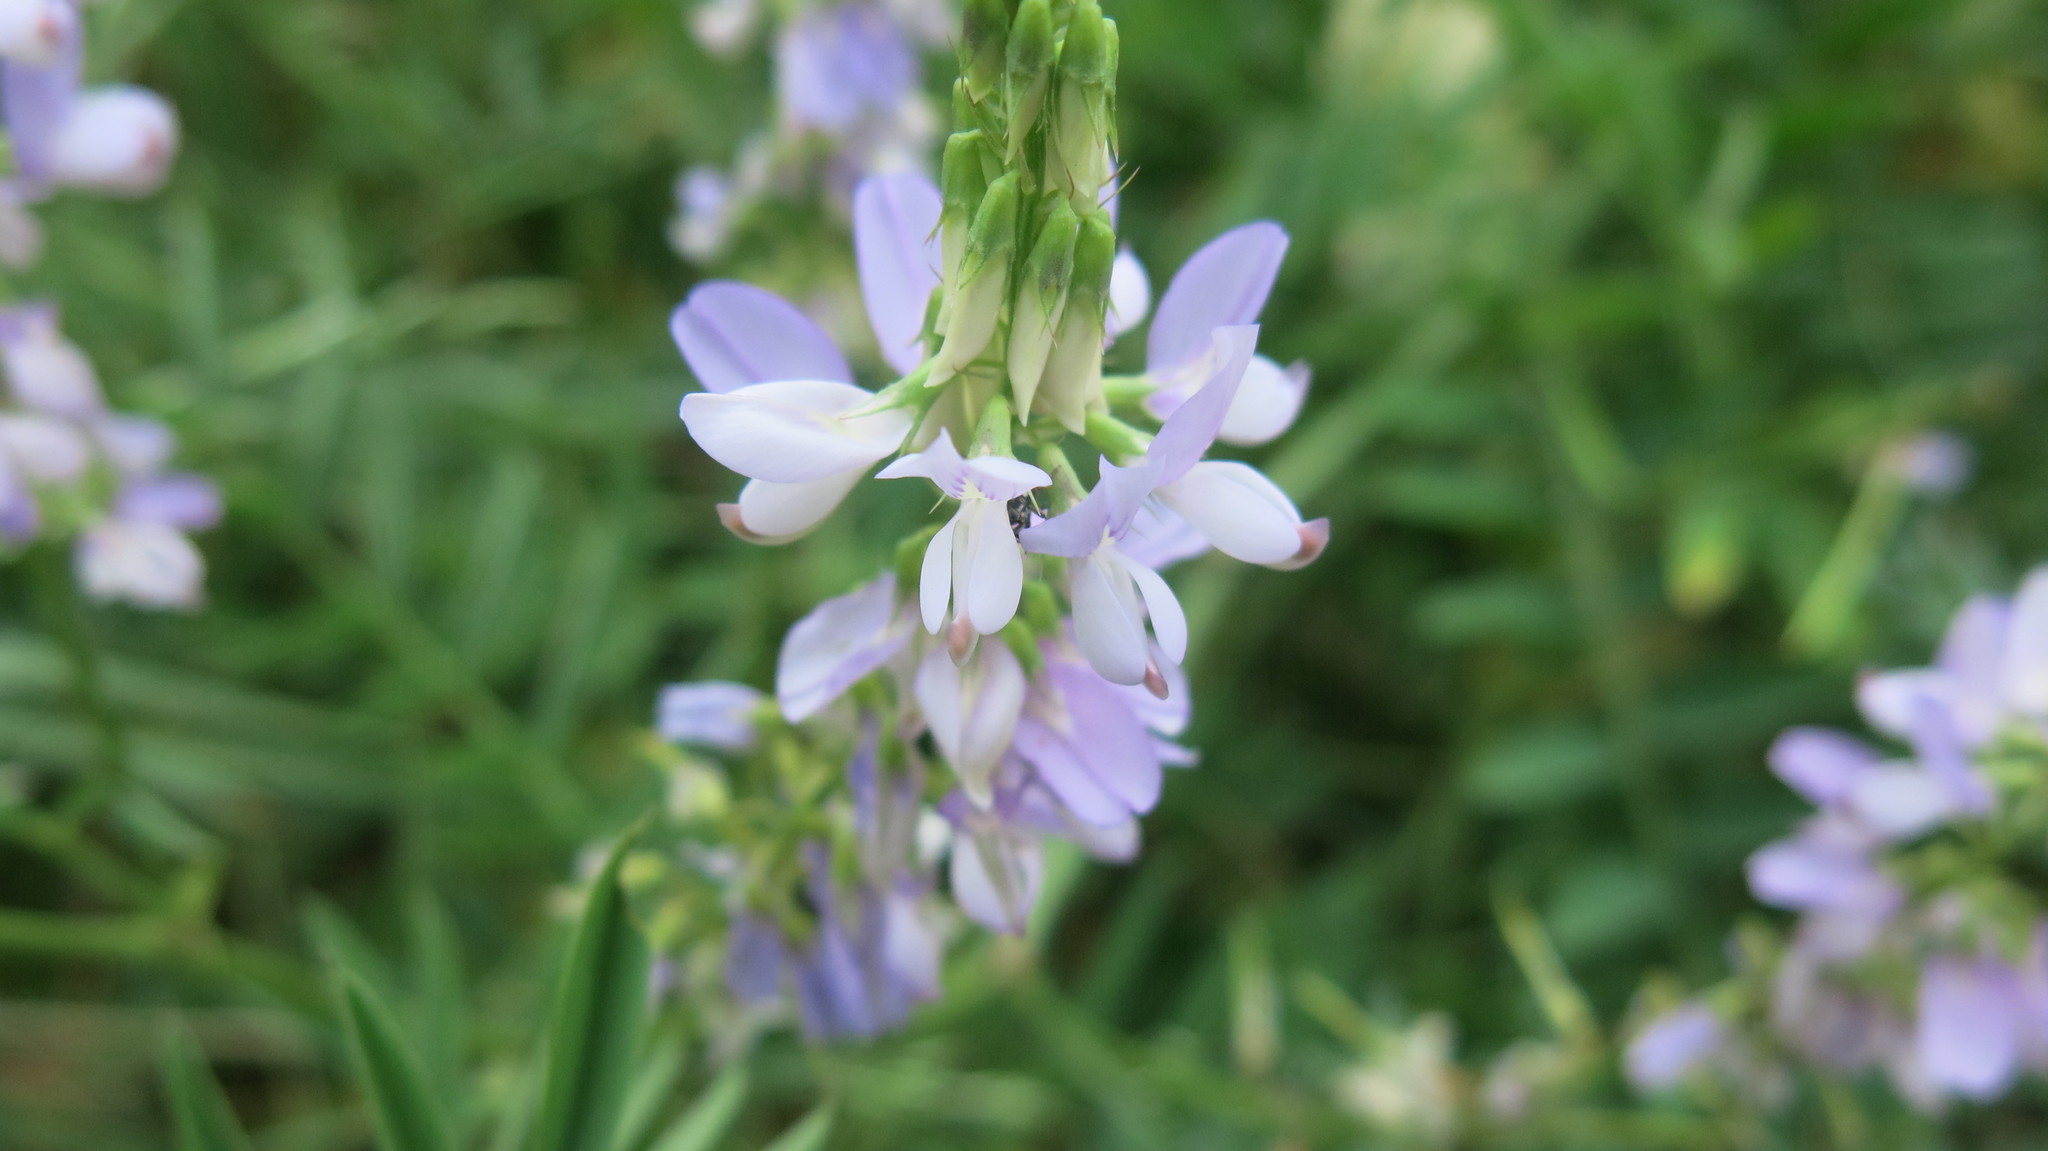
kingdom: Plantae
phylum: Tracheophyta
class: Magnoliopsida
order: Fabales
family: Fabaceae
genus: Galega
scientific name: Galega officinalis
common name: Goat's-rue
